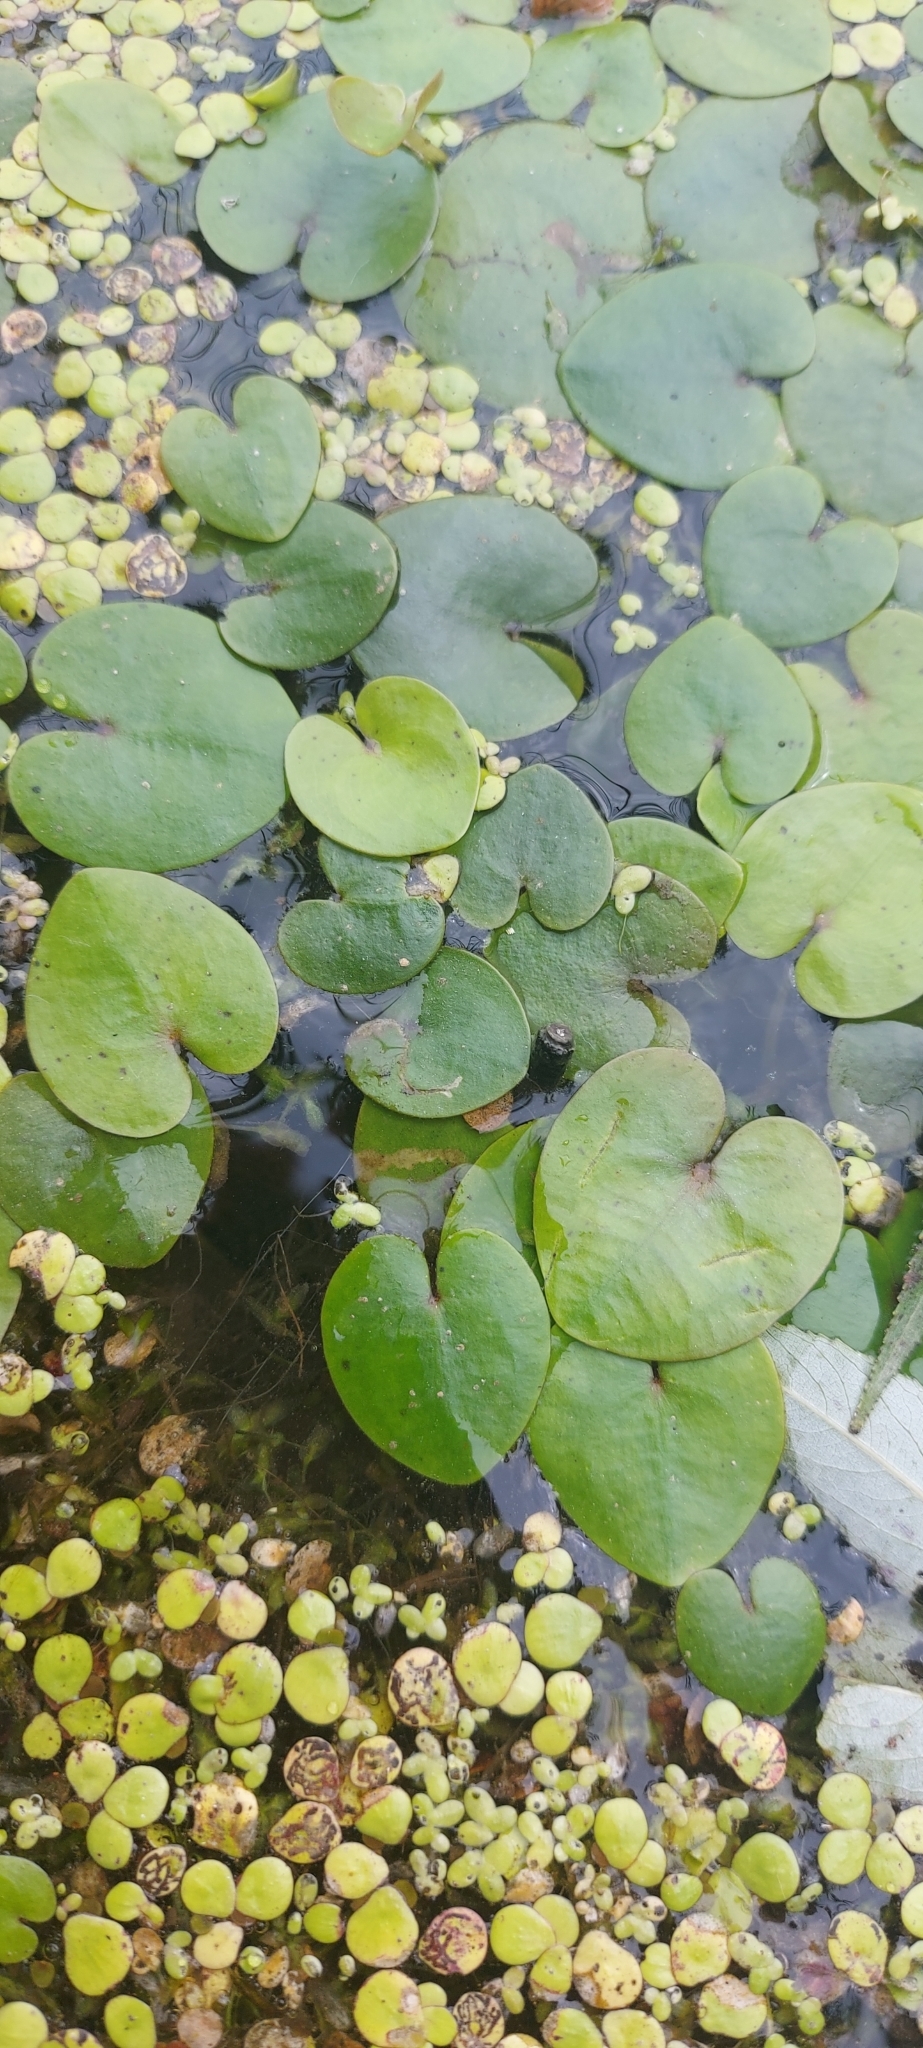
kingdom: Plantae
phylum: Tracheophyta
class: Liliopsida
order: Alismatales
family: Hydrocharitaceae
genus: Hydrocharis
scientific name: Hydrocharis morsus-ranae
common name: Frogbit
